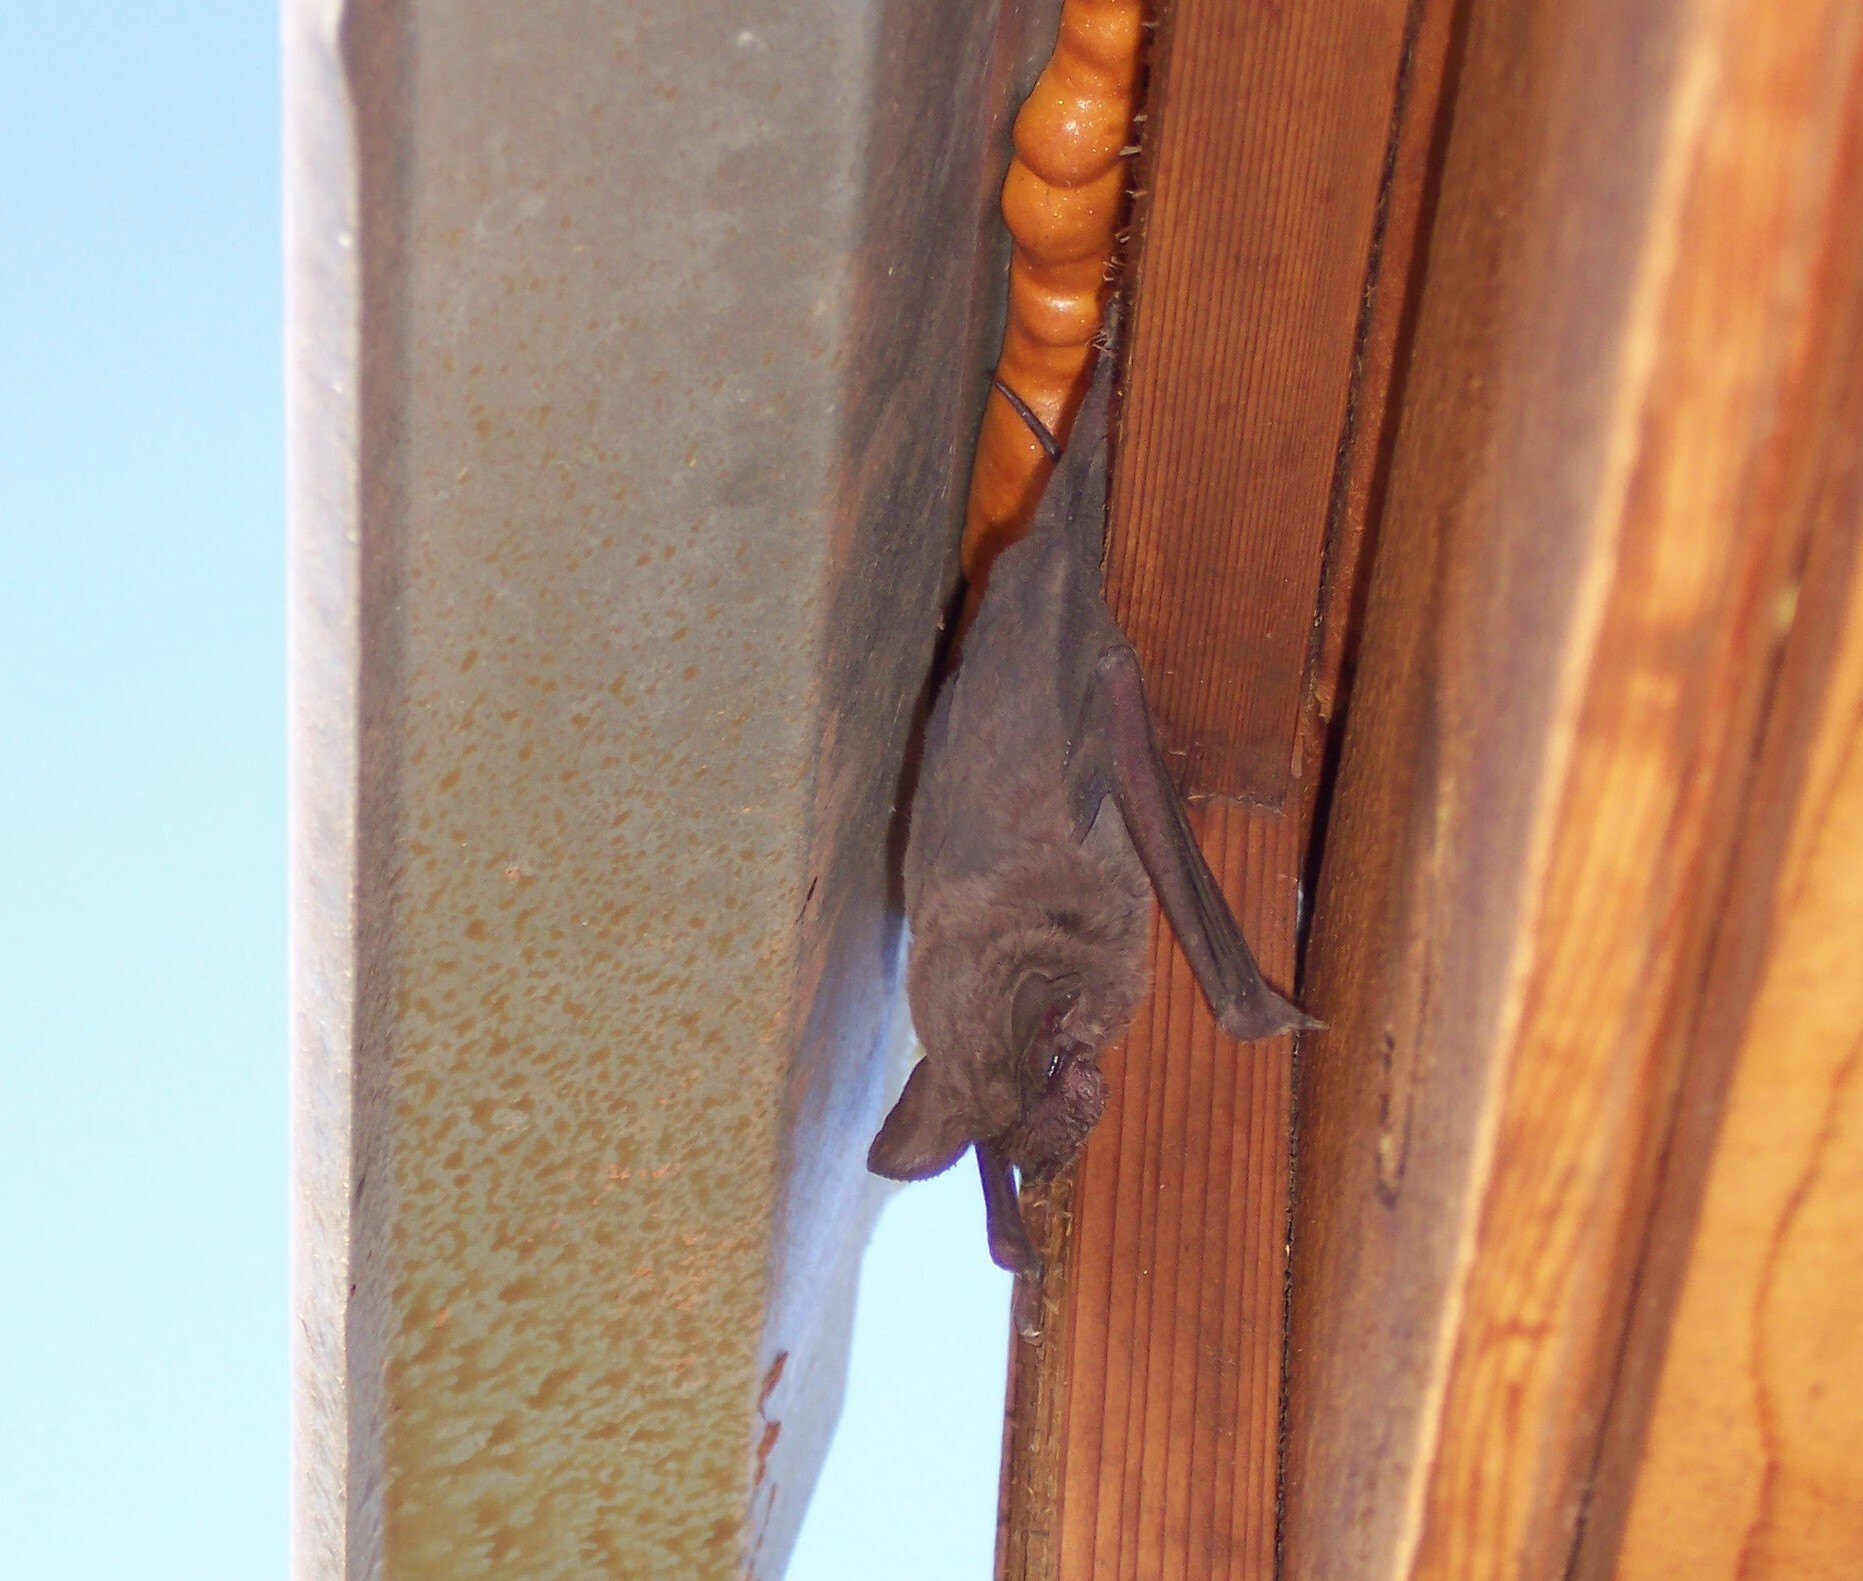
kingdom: Animalia
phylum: Chordata
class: Mammalia
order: Chiroptera
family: Molossidae
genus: Tadarida
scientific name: Tadarida brasiliensis
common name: Mexican free-tailed bat
